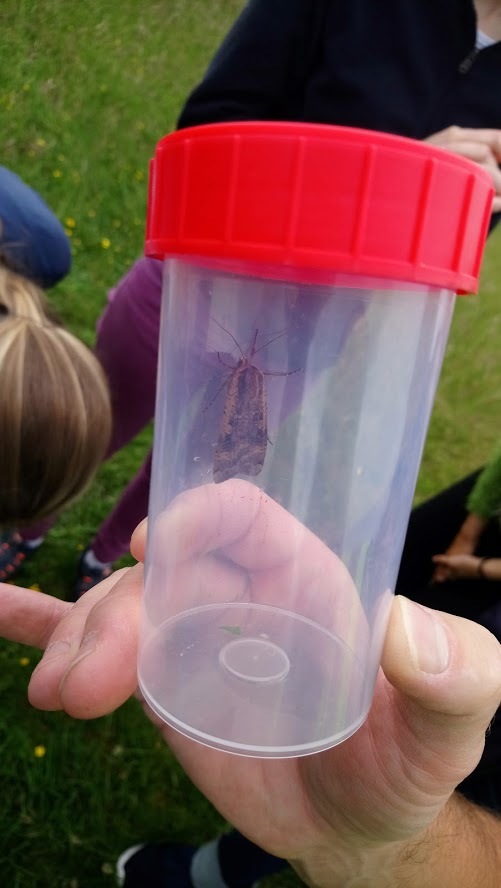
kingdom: Animalia
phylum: Arthropoda
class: Insecta
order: Lepidoptera
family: Noctuidae
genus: Noctua
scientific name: Noctua pronuba
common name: Large yellow underwing
